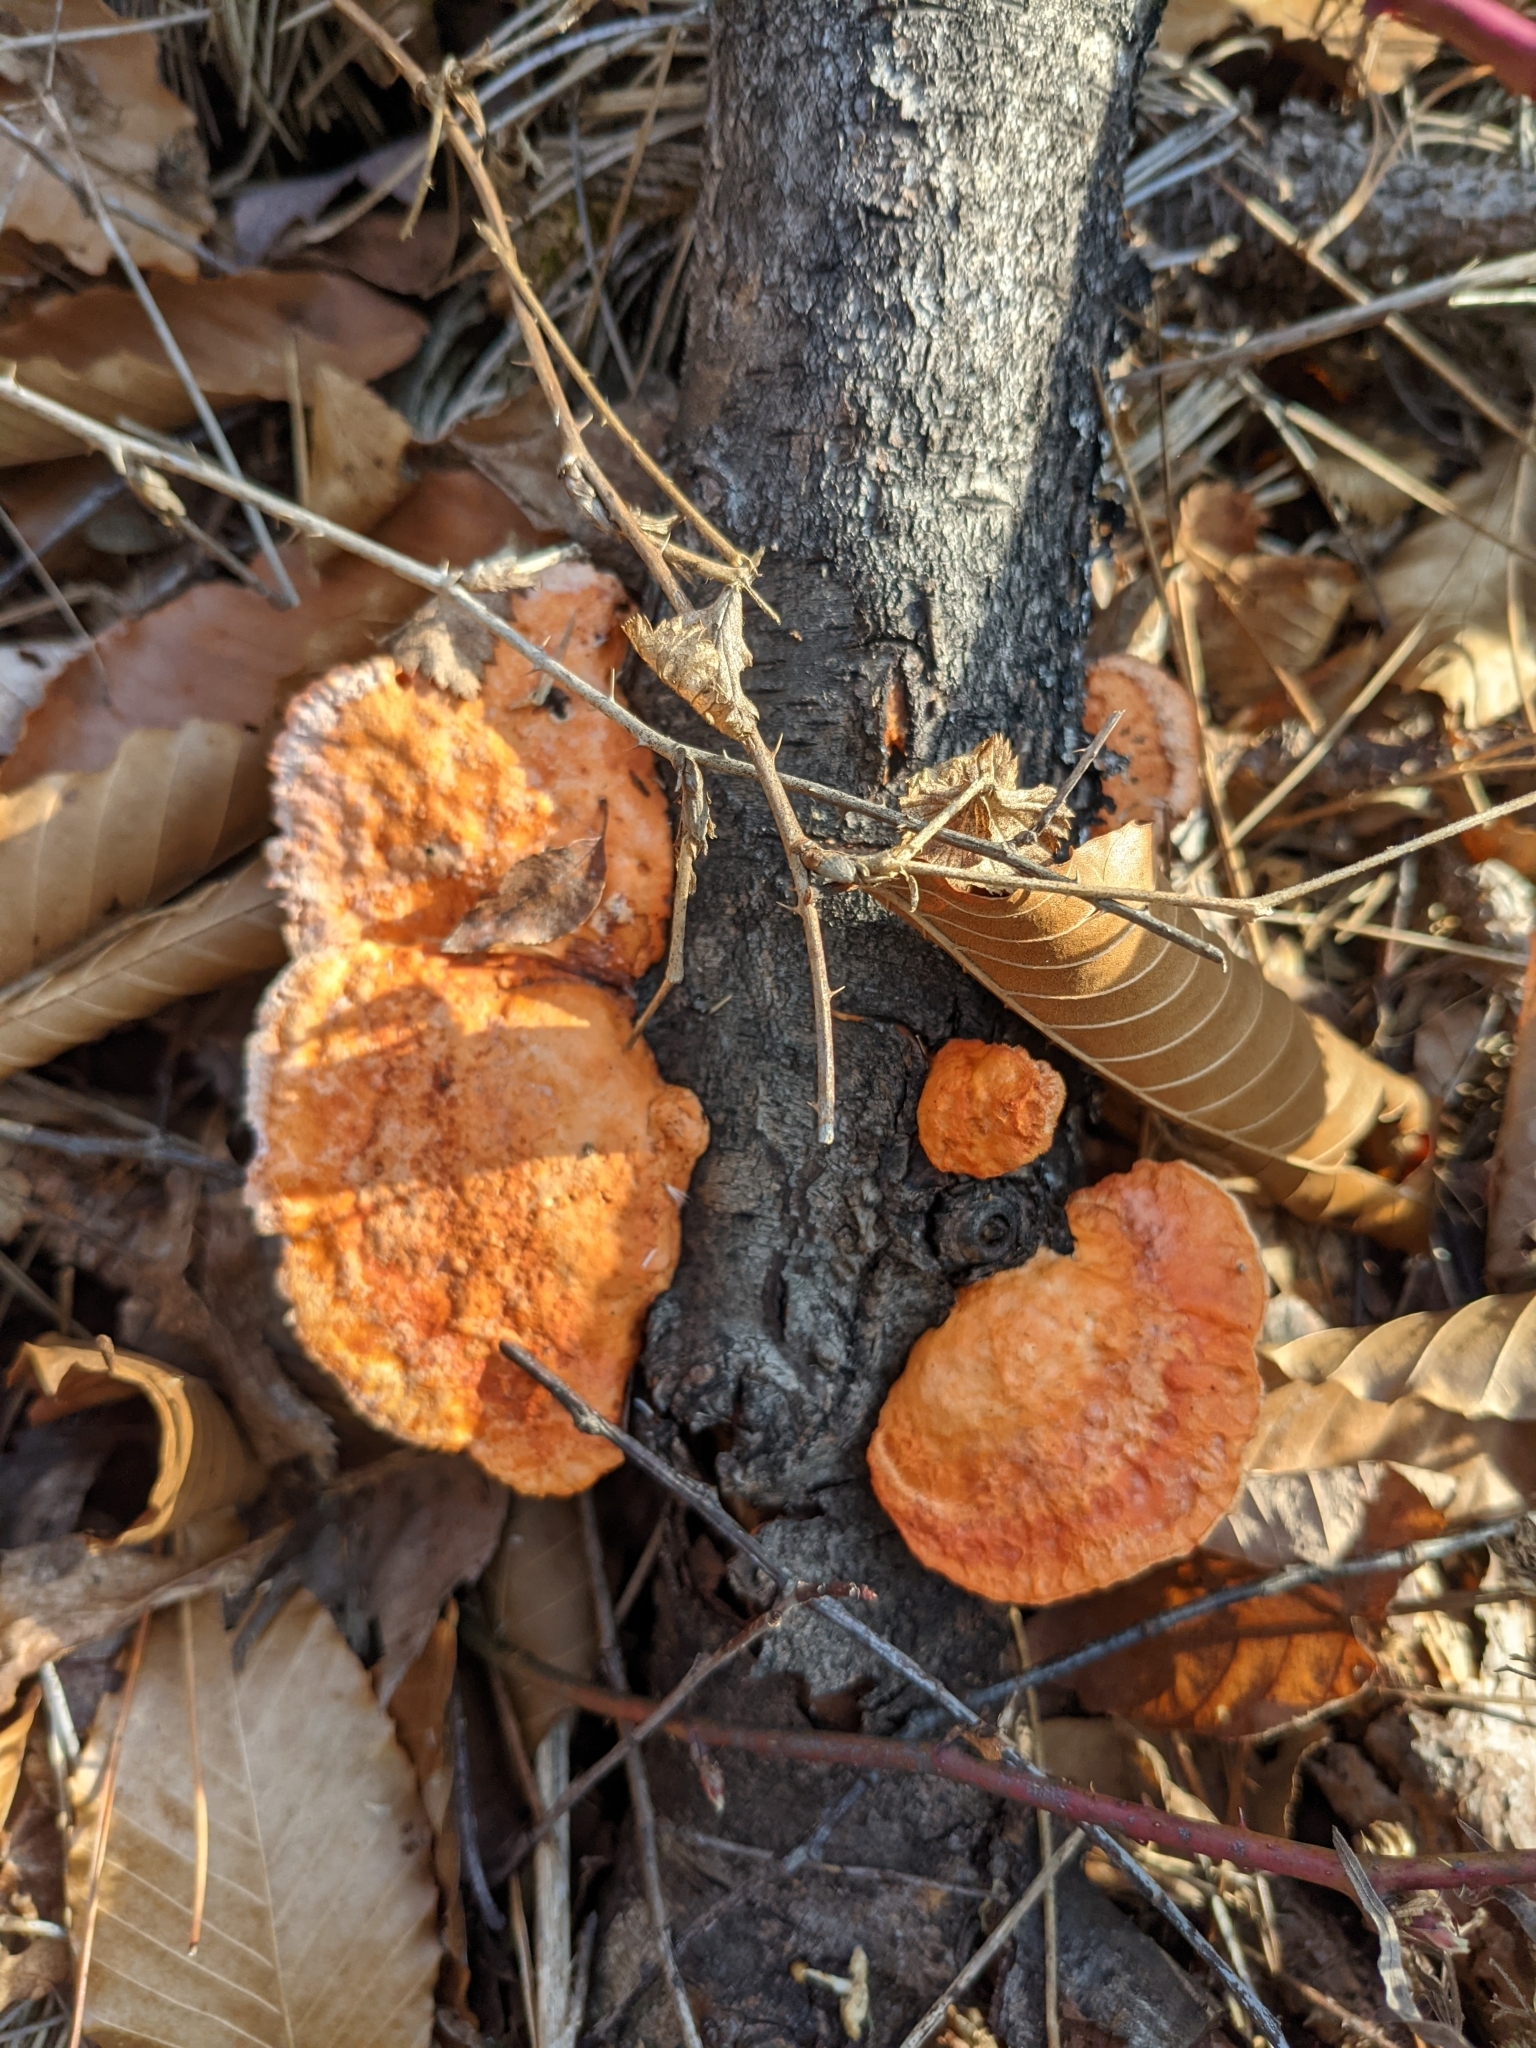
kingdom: Fungi
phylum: Basidiomycota
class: Agaricomycetes
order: Polyporales
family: Polyporaceae
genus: Trametes
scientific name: Trametes cinnabarina
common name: Northern cinnabar polypore
